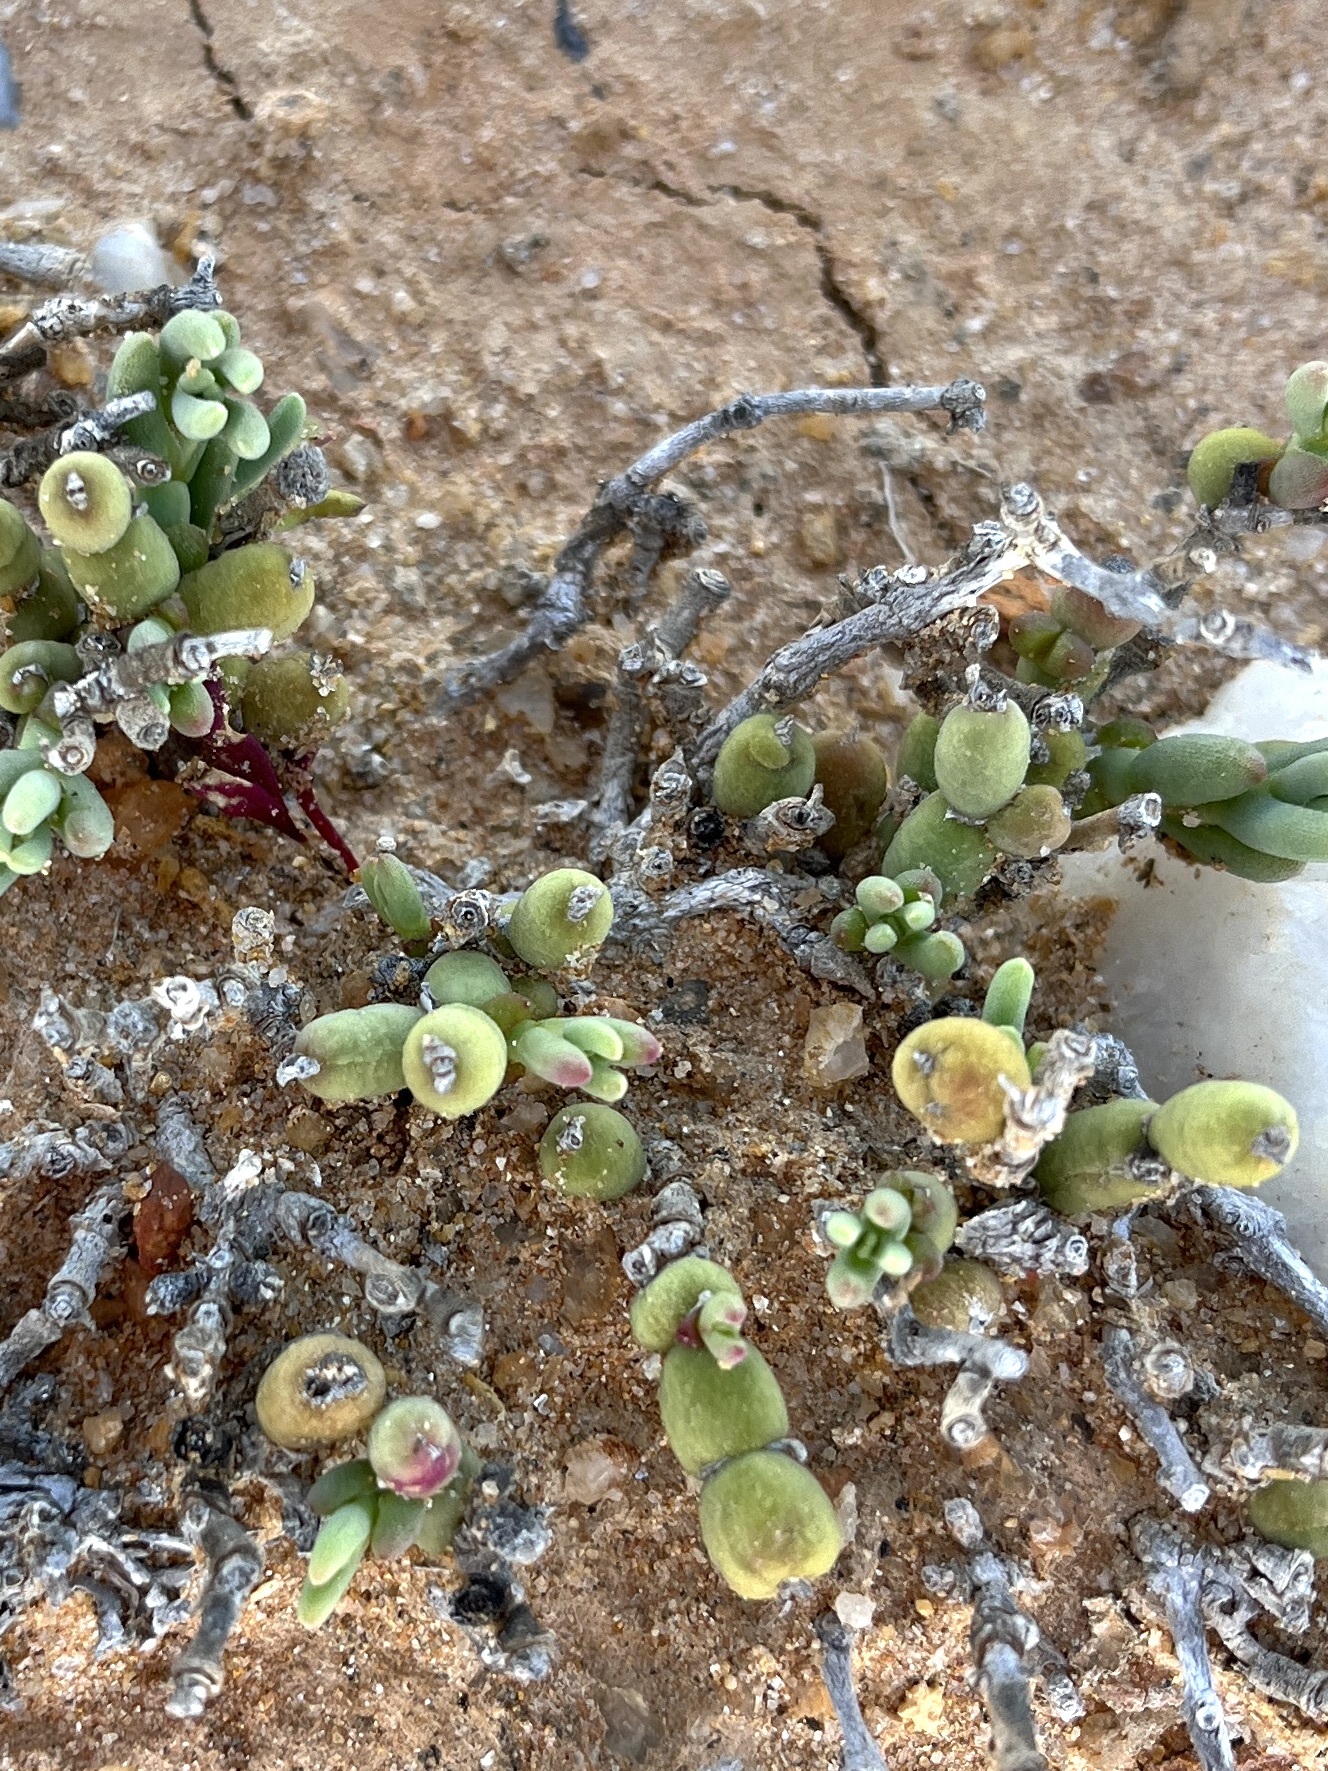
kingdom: Plantae
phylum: Tracheophyta
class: Magnoliopsida
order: Caryophyllales
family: Aizoaceae
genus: Mesembryanthemum
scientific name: Mesembryanthemum dinteri
